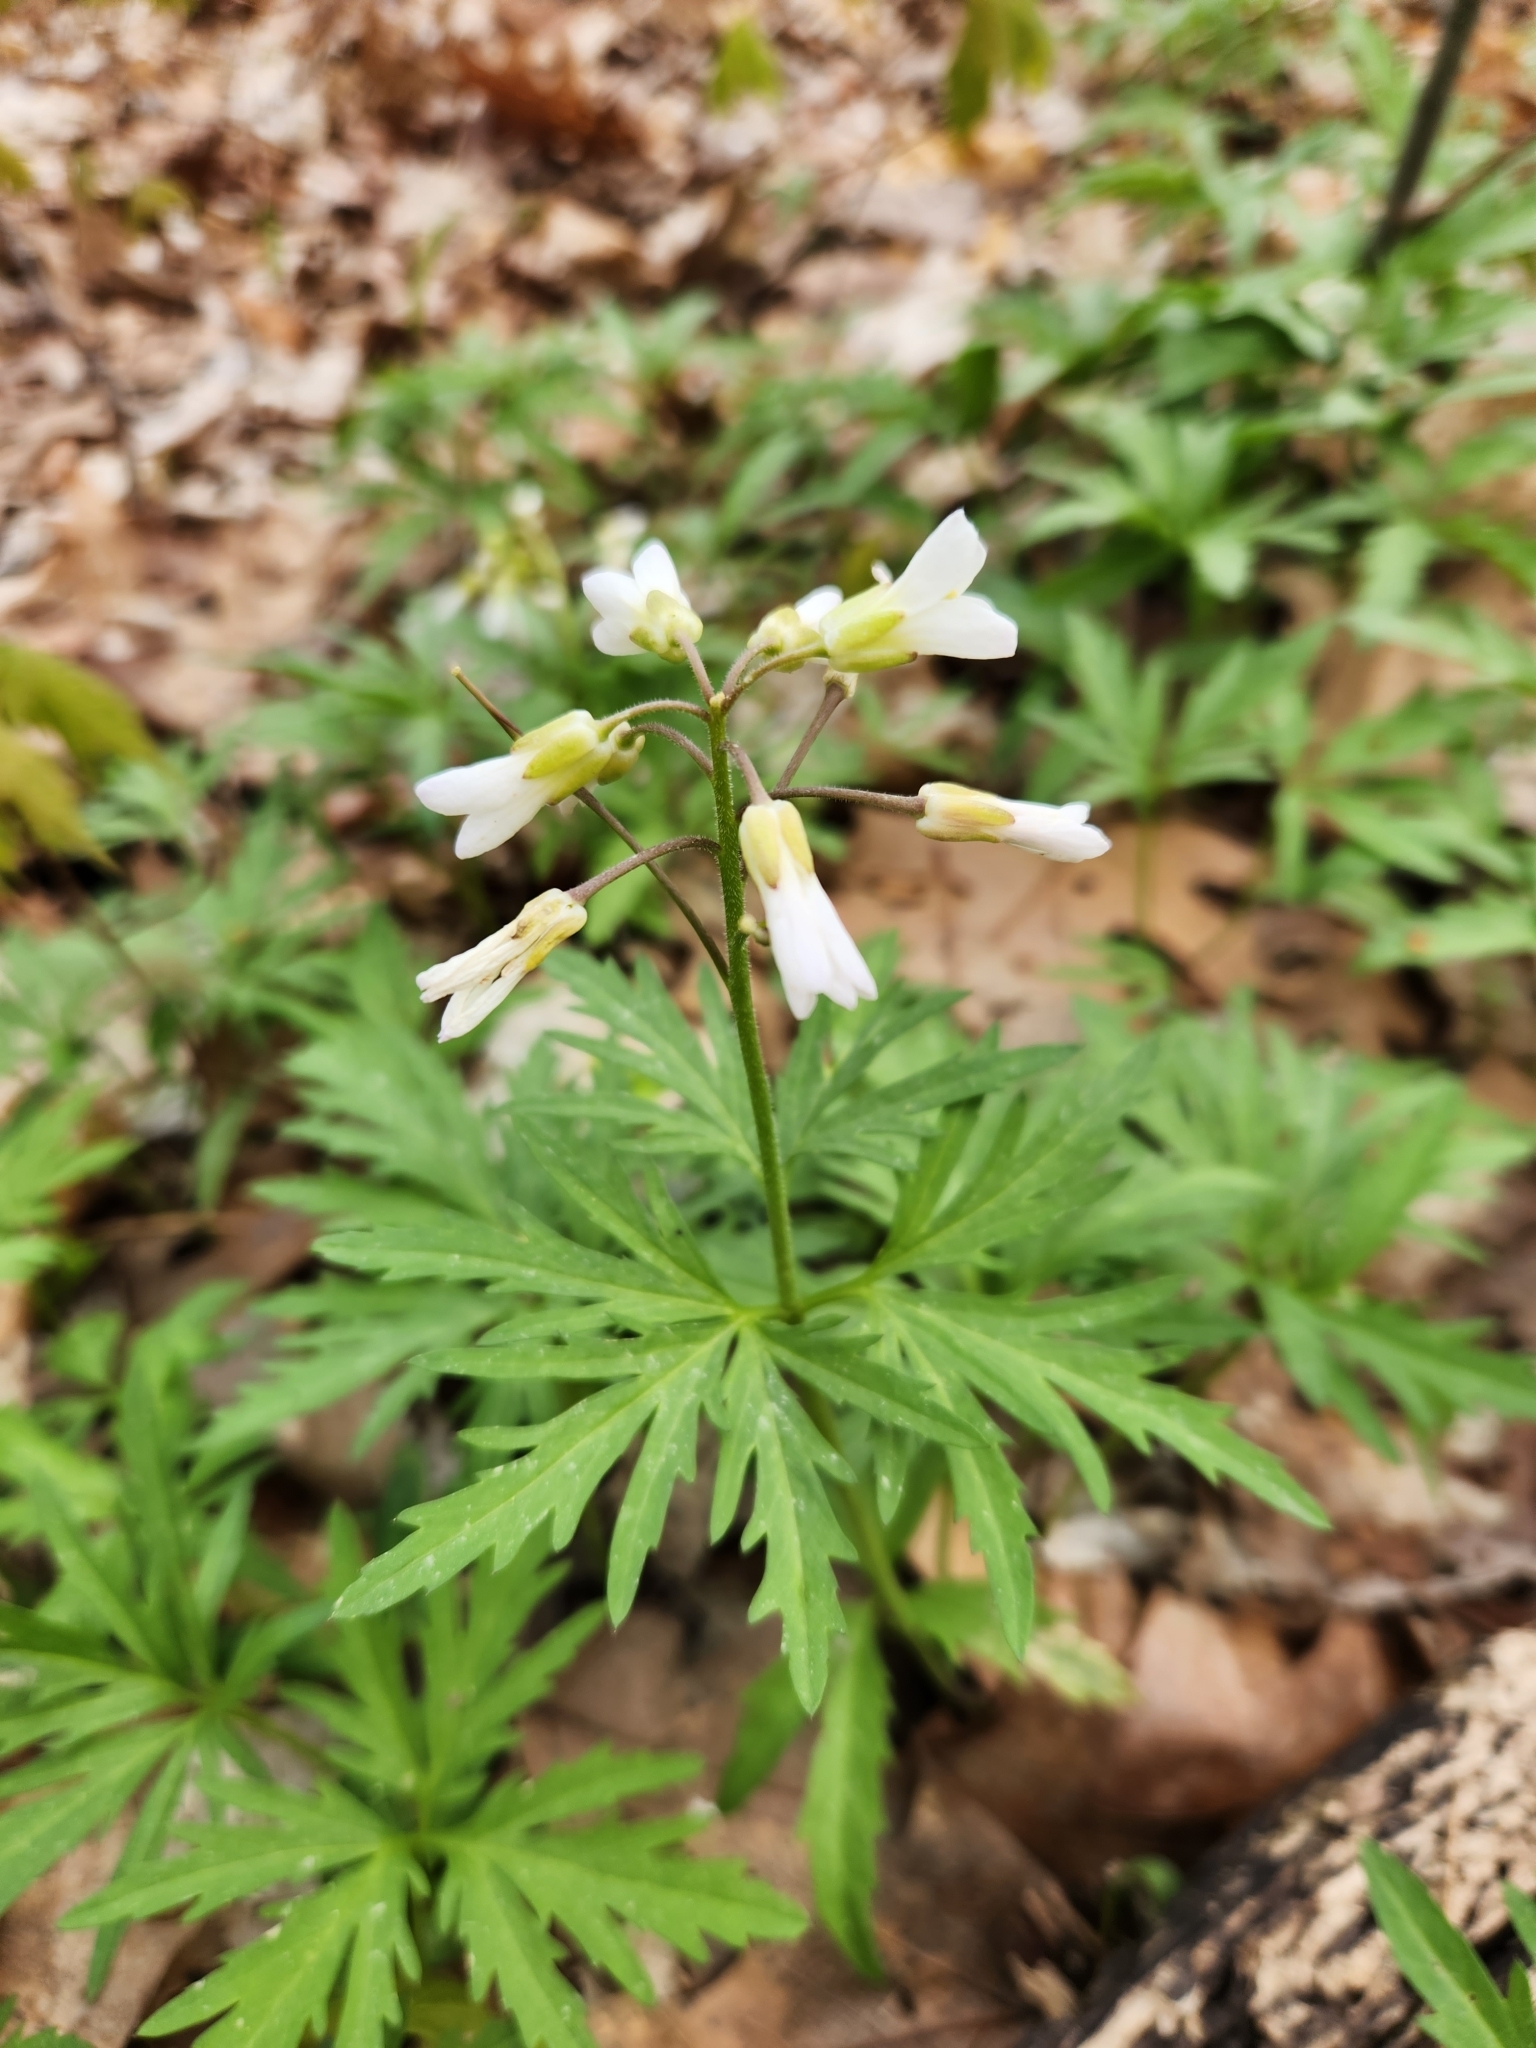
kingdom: Plantae
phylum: Tracheophyta
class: Magnoliopsida
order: Brassicales
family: Brassicaceae
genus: Cardamine
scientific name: Cardamine concatenata
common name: Cut-leaf toothcup
